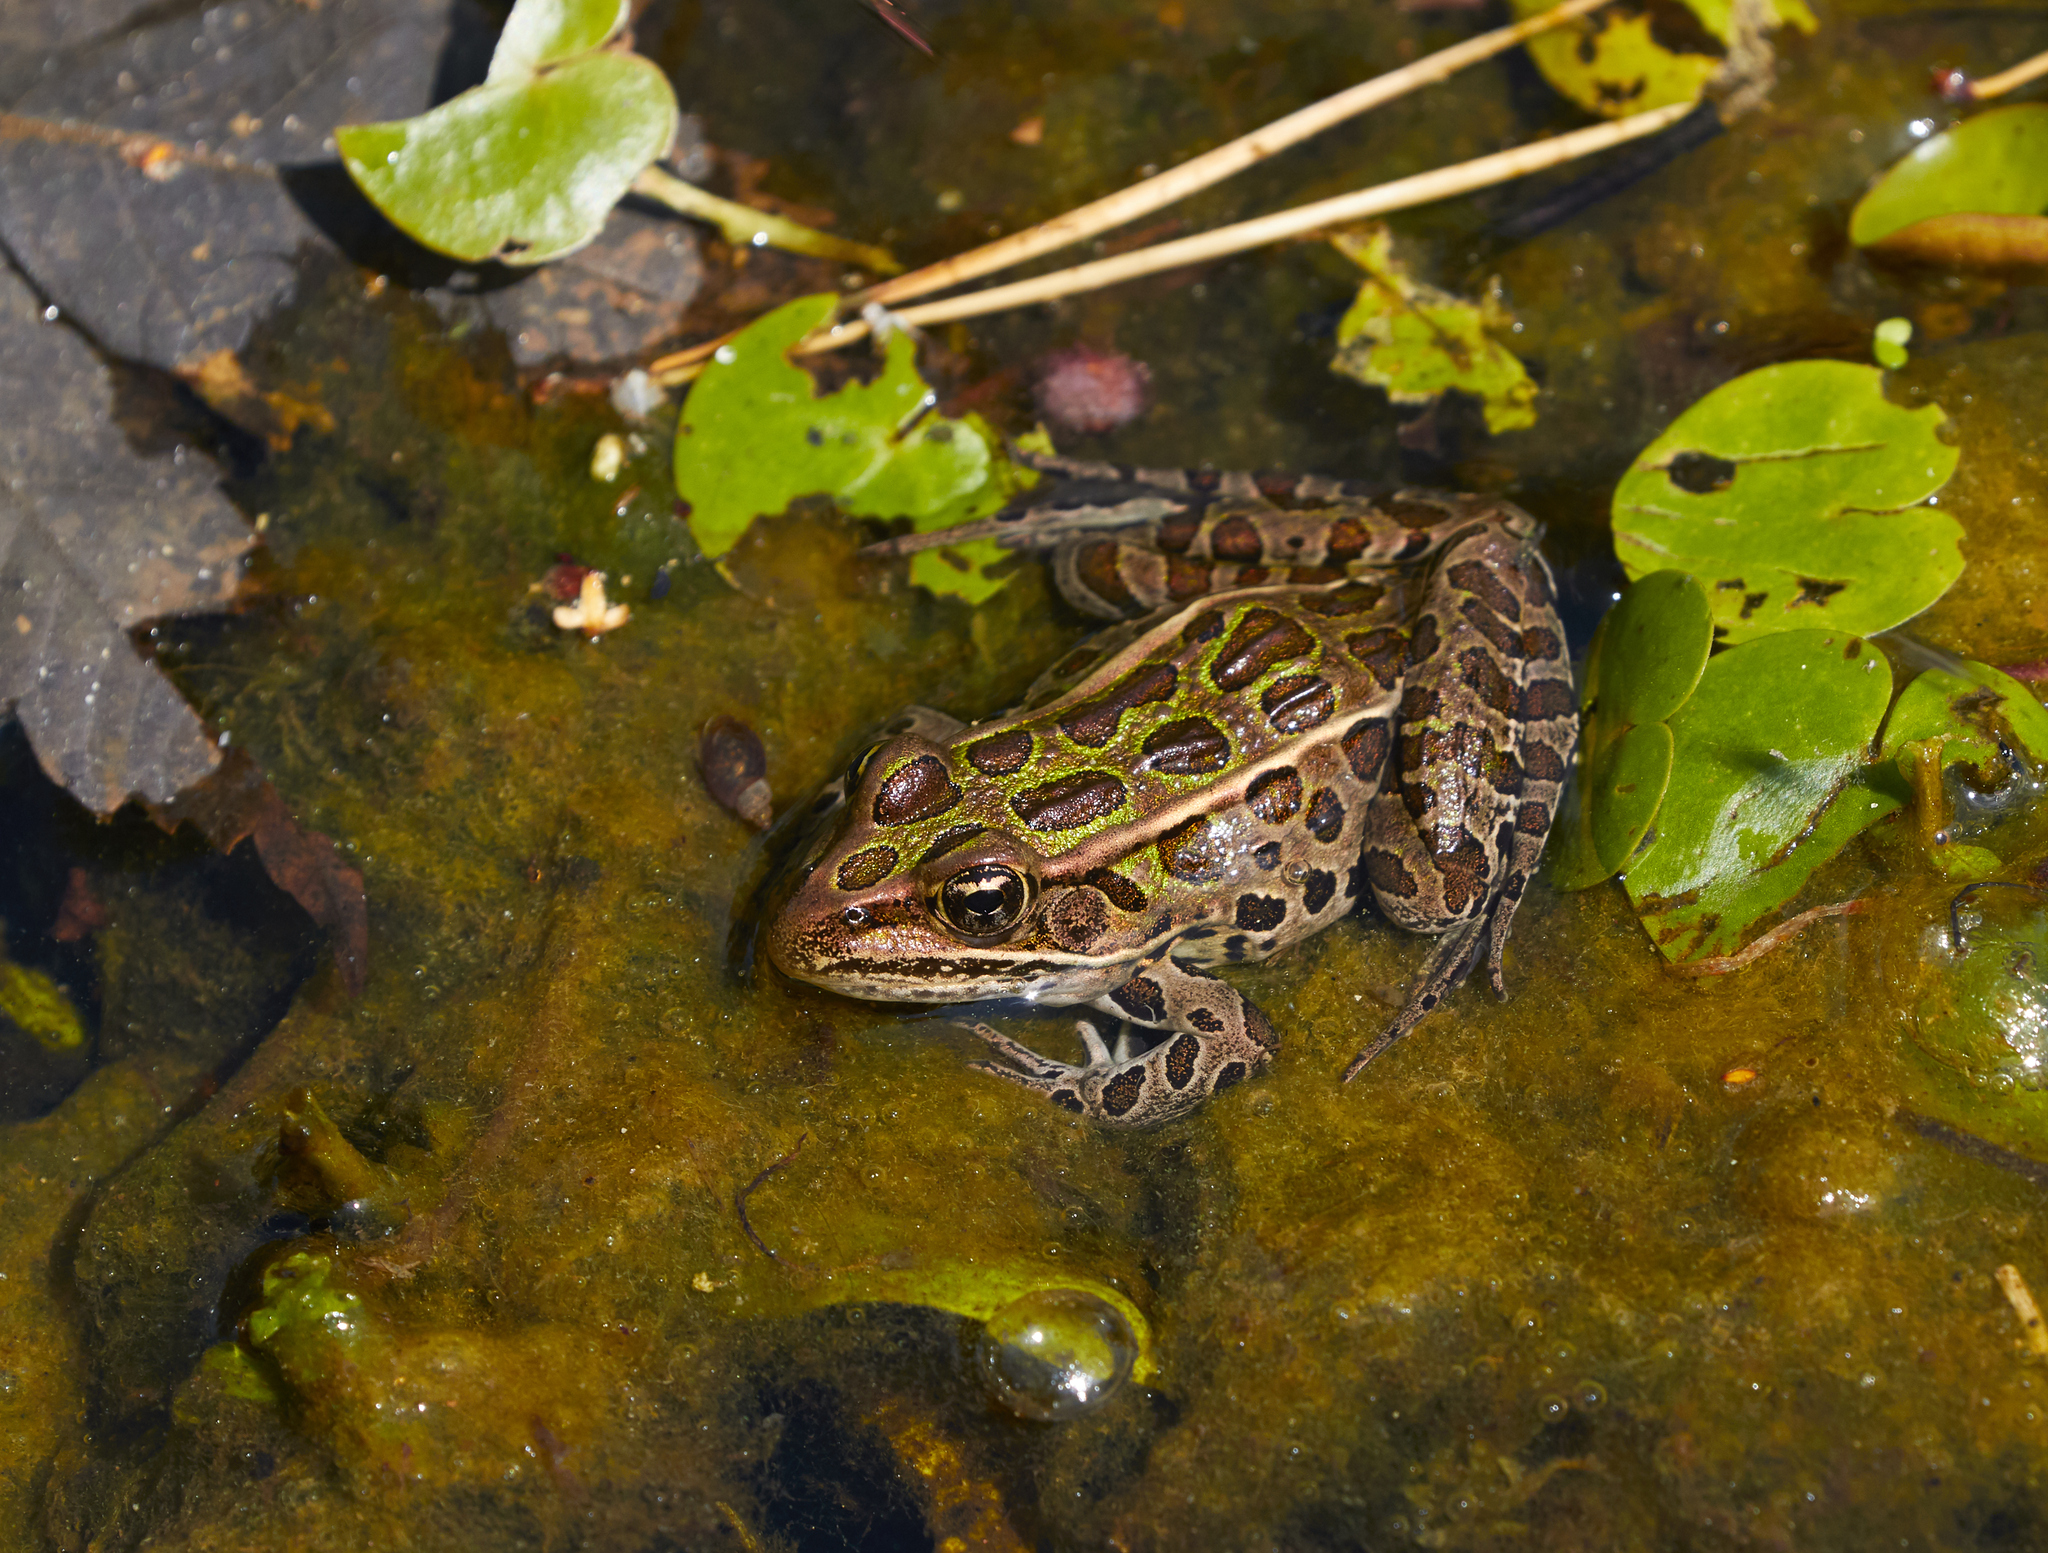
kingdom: Animalia
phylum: Chordata
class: Amphibia
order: Anura
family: Ranidae
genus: Lithobates
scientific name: Lithobates pipiens
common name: Northern leopard frog
